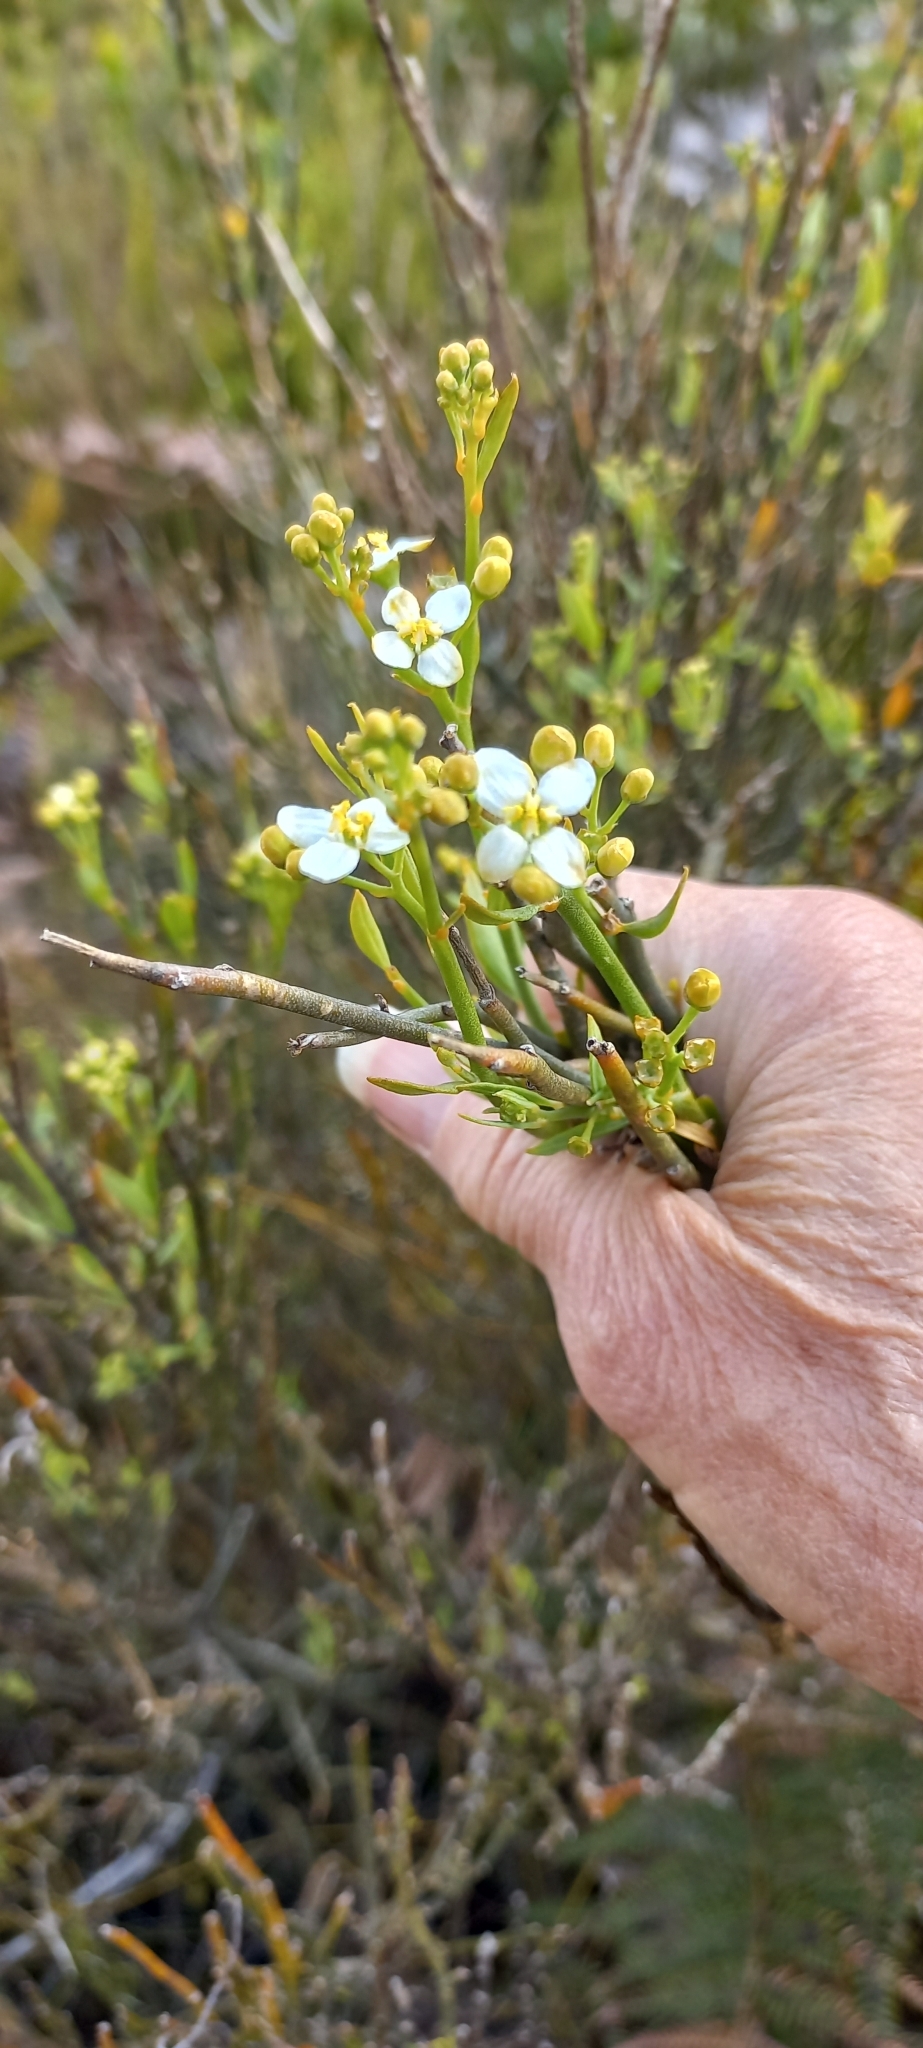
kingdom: Plantae
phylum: Tracheophyta
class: Magnoliopsida
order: Solanales
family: Montiniaceae
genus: Montinia
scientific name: Montinia caryophyllacea
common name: Wild clove-bush
